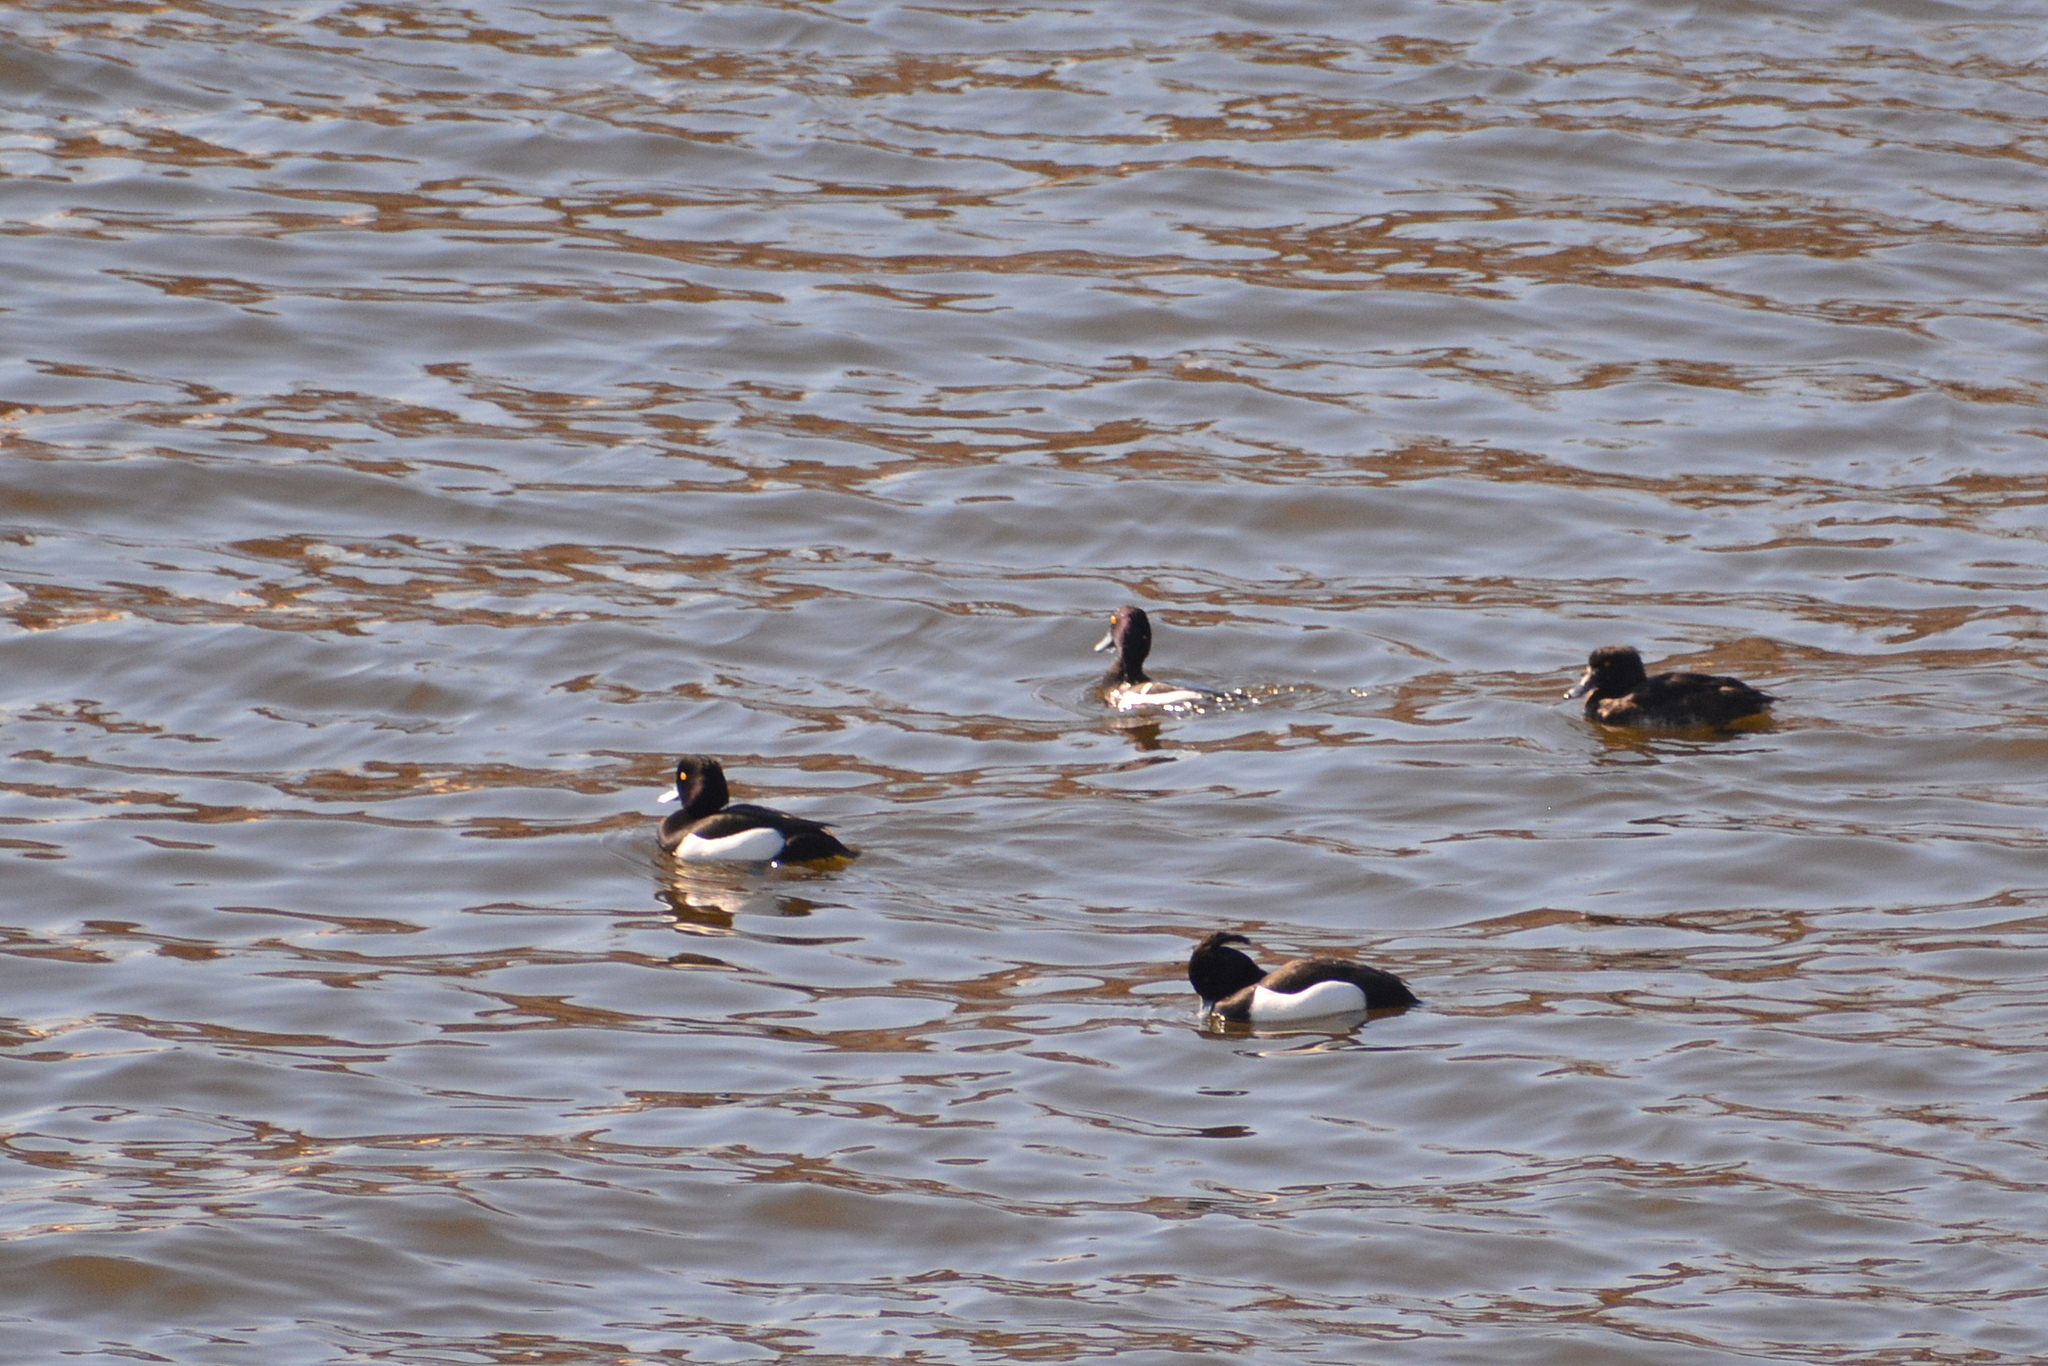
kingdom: Animalia
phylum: Chordata
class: Aves
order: Anseriformes
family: Anatidae
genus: Aythya
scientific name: Aythya fuligula
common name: Tufted duck
